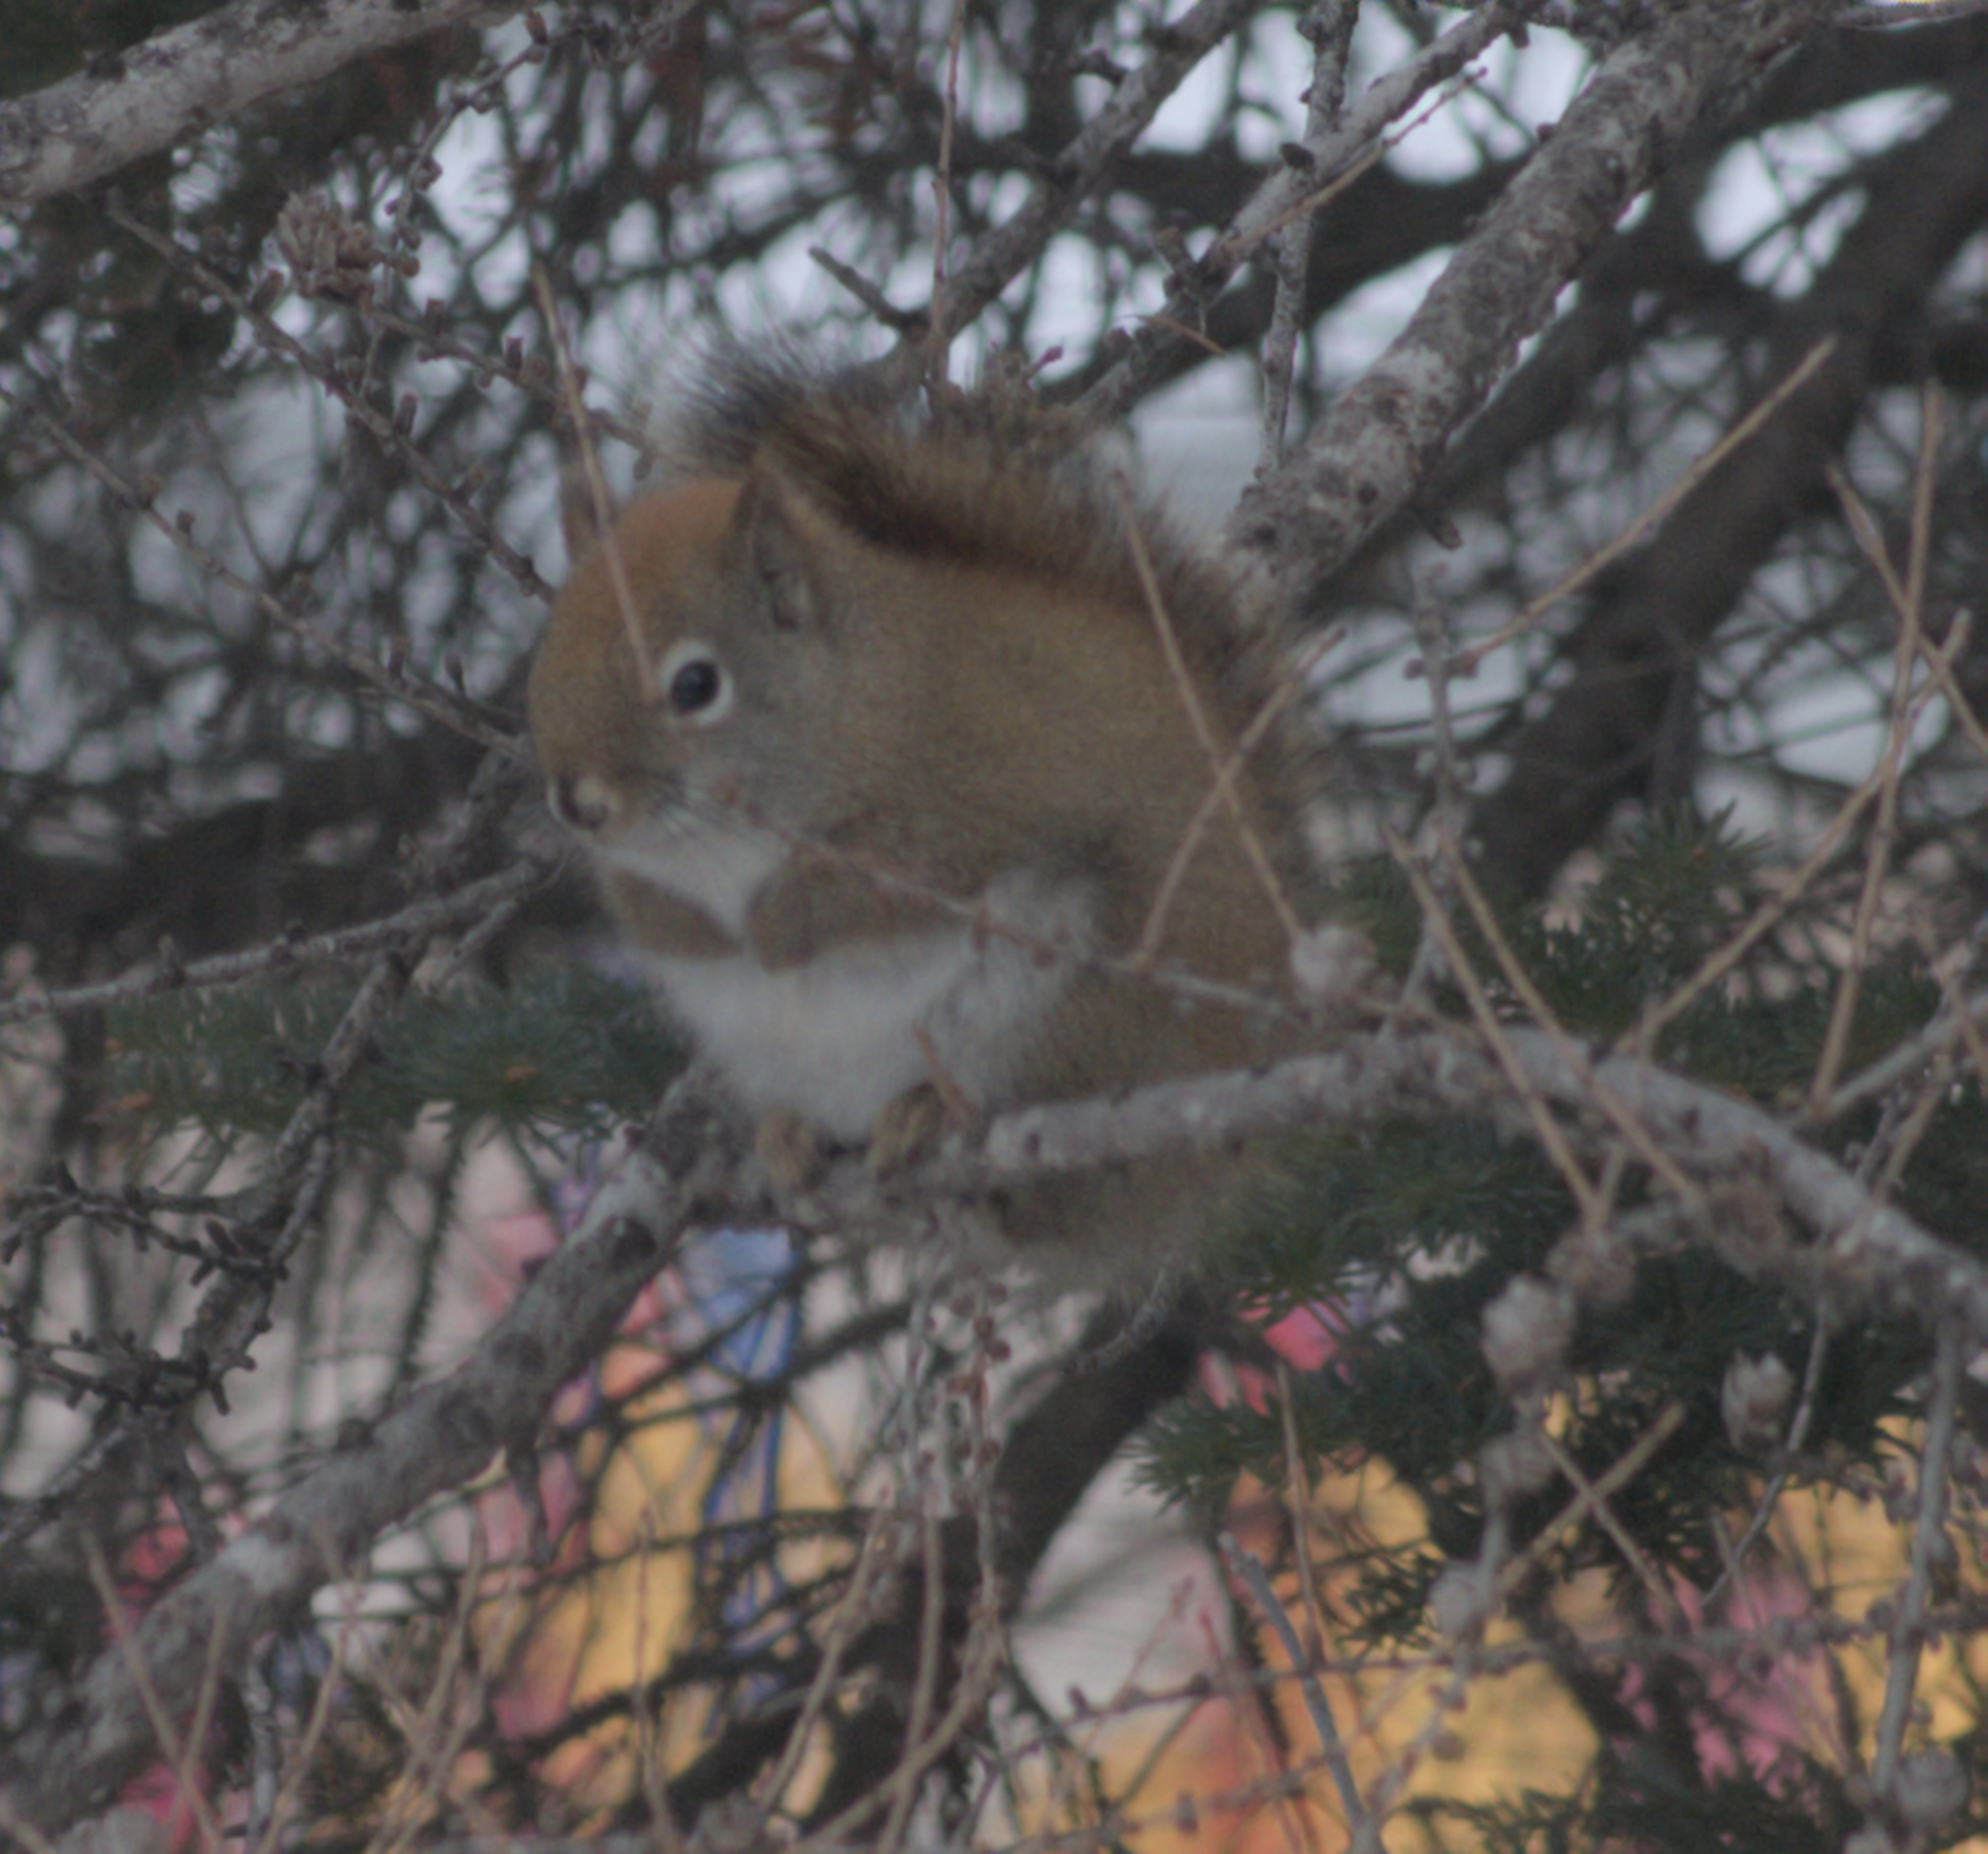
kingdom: Animalia
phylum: Chordata
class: Mammalia
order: Rodentia
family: Sciuridae
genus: Tamiasciurus
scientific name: Tamiasciurus hudsonicus
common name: Red squirrel
